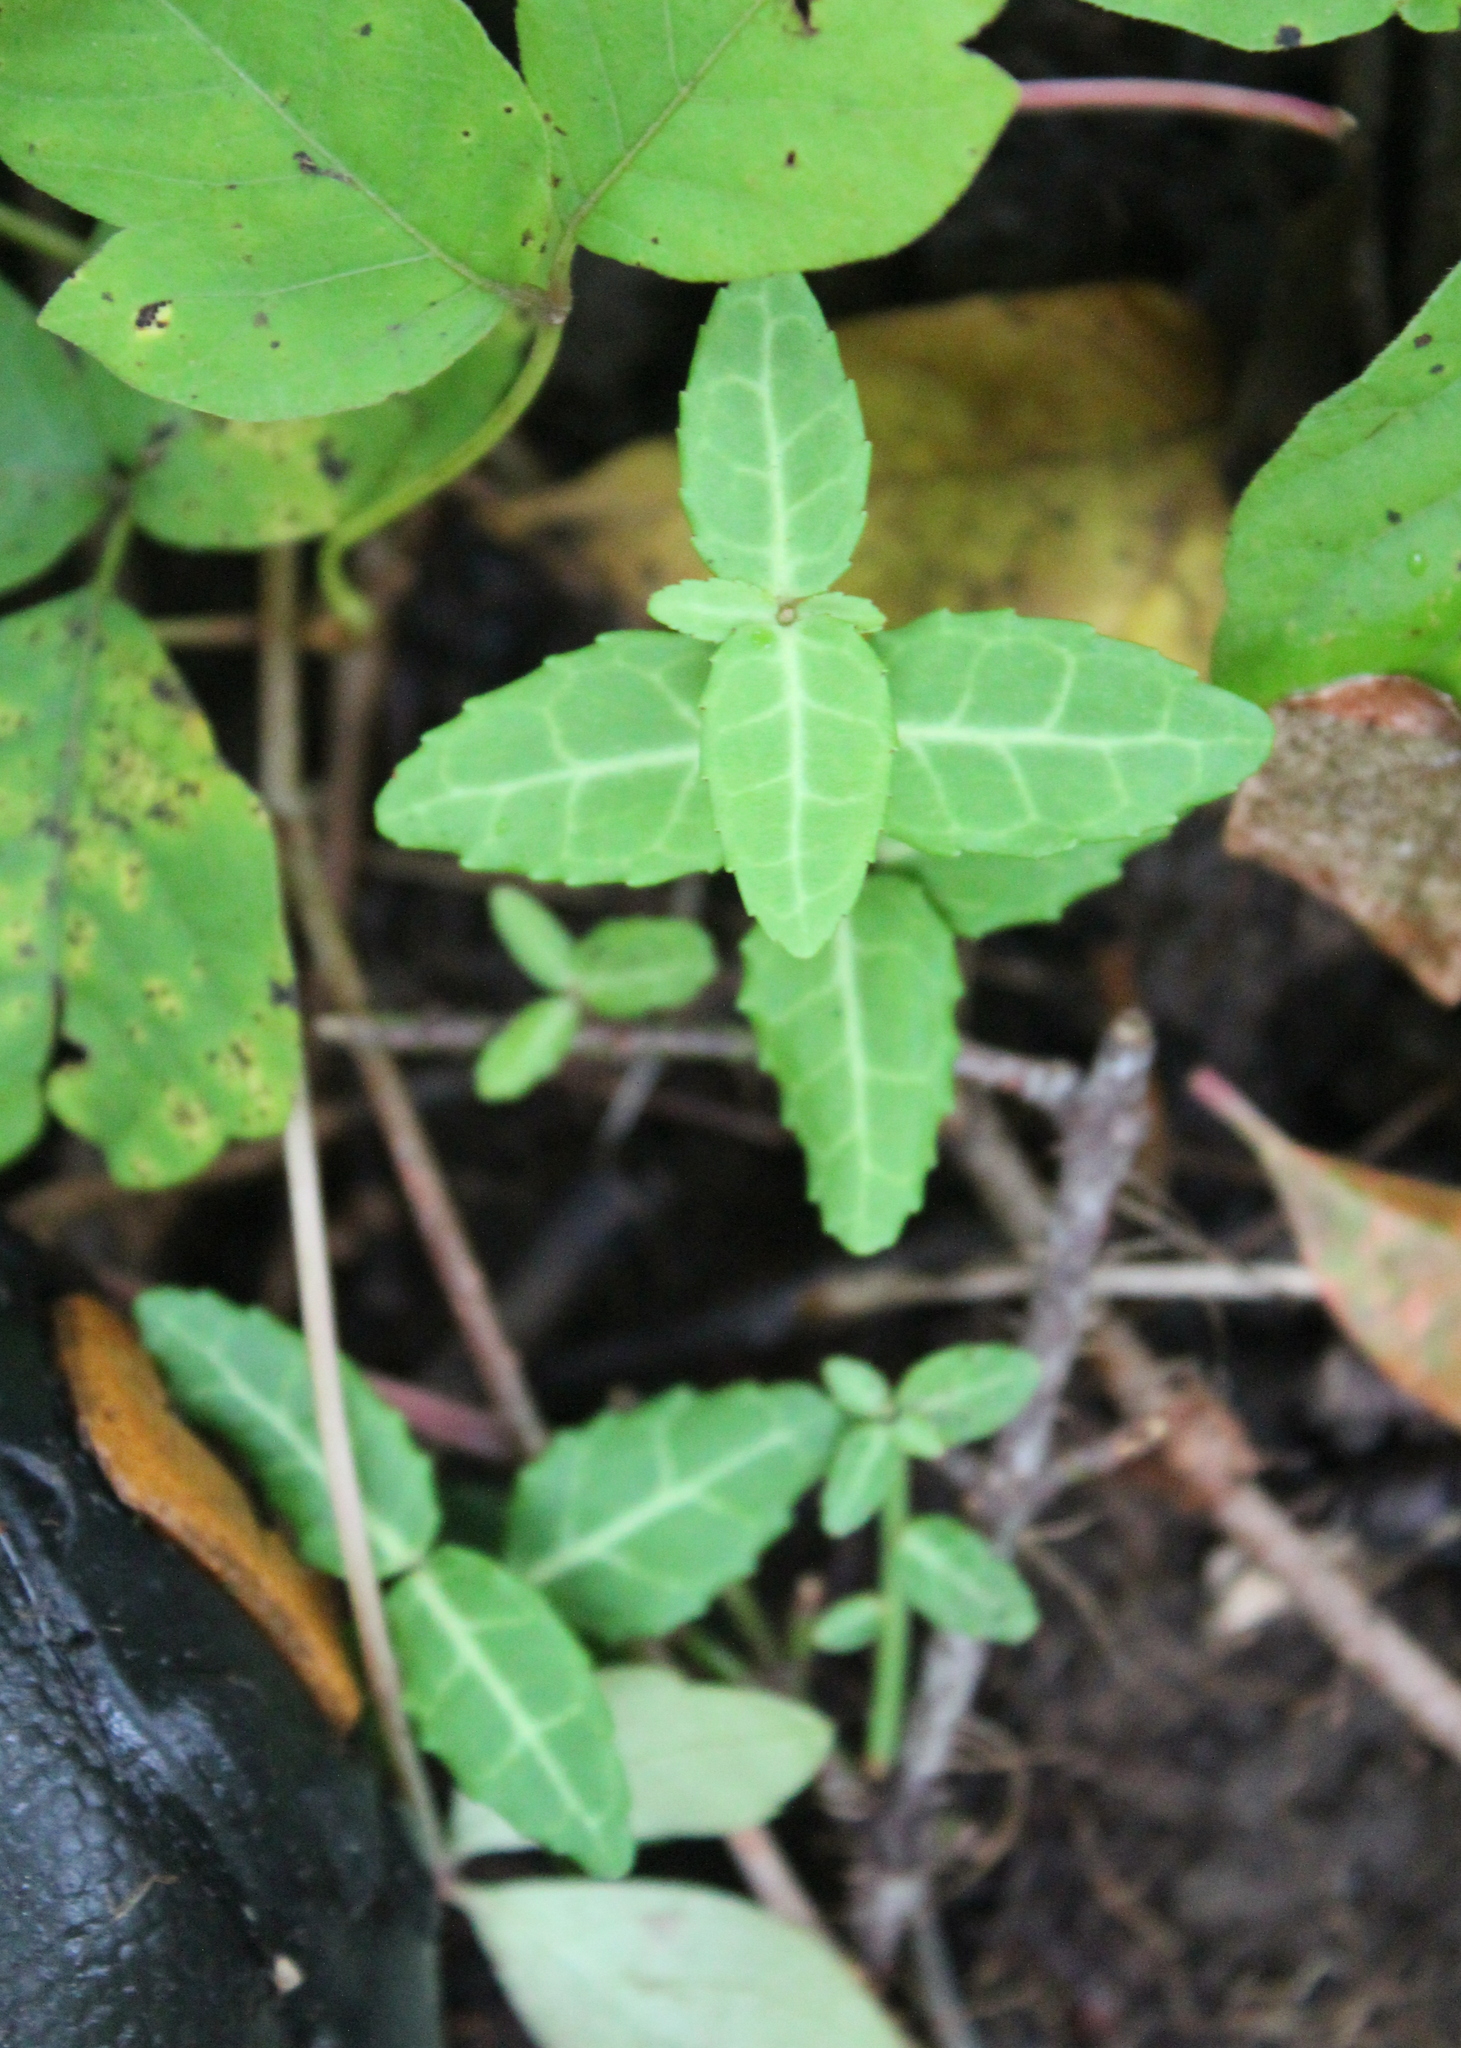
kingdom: Plantae
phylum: Tracheophyta
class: Magnoliopsida
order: Celastrales
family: Celastraceae
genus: Euonymus
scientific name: Euonymus fortunei
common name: Climbing euonymus
